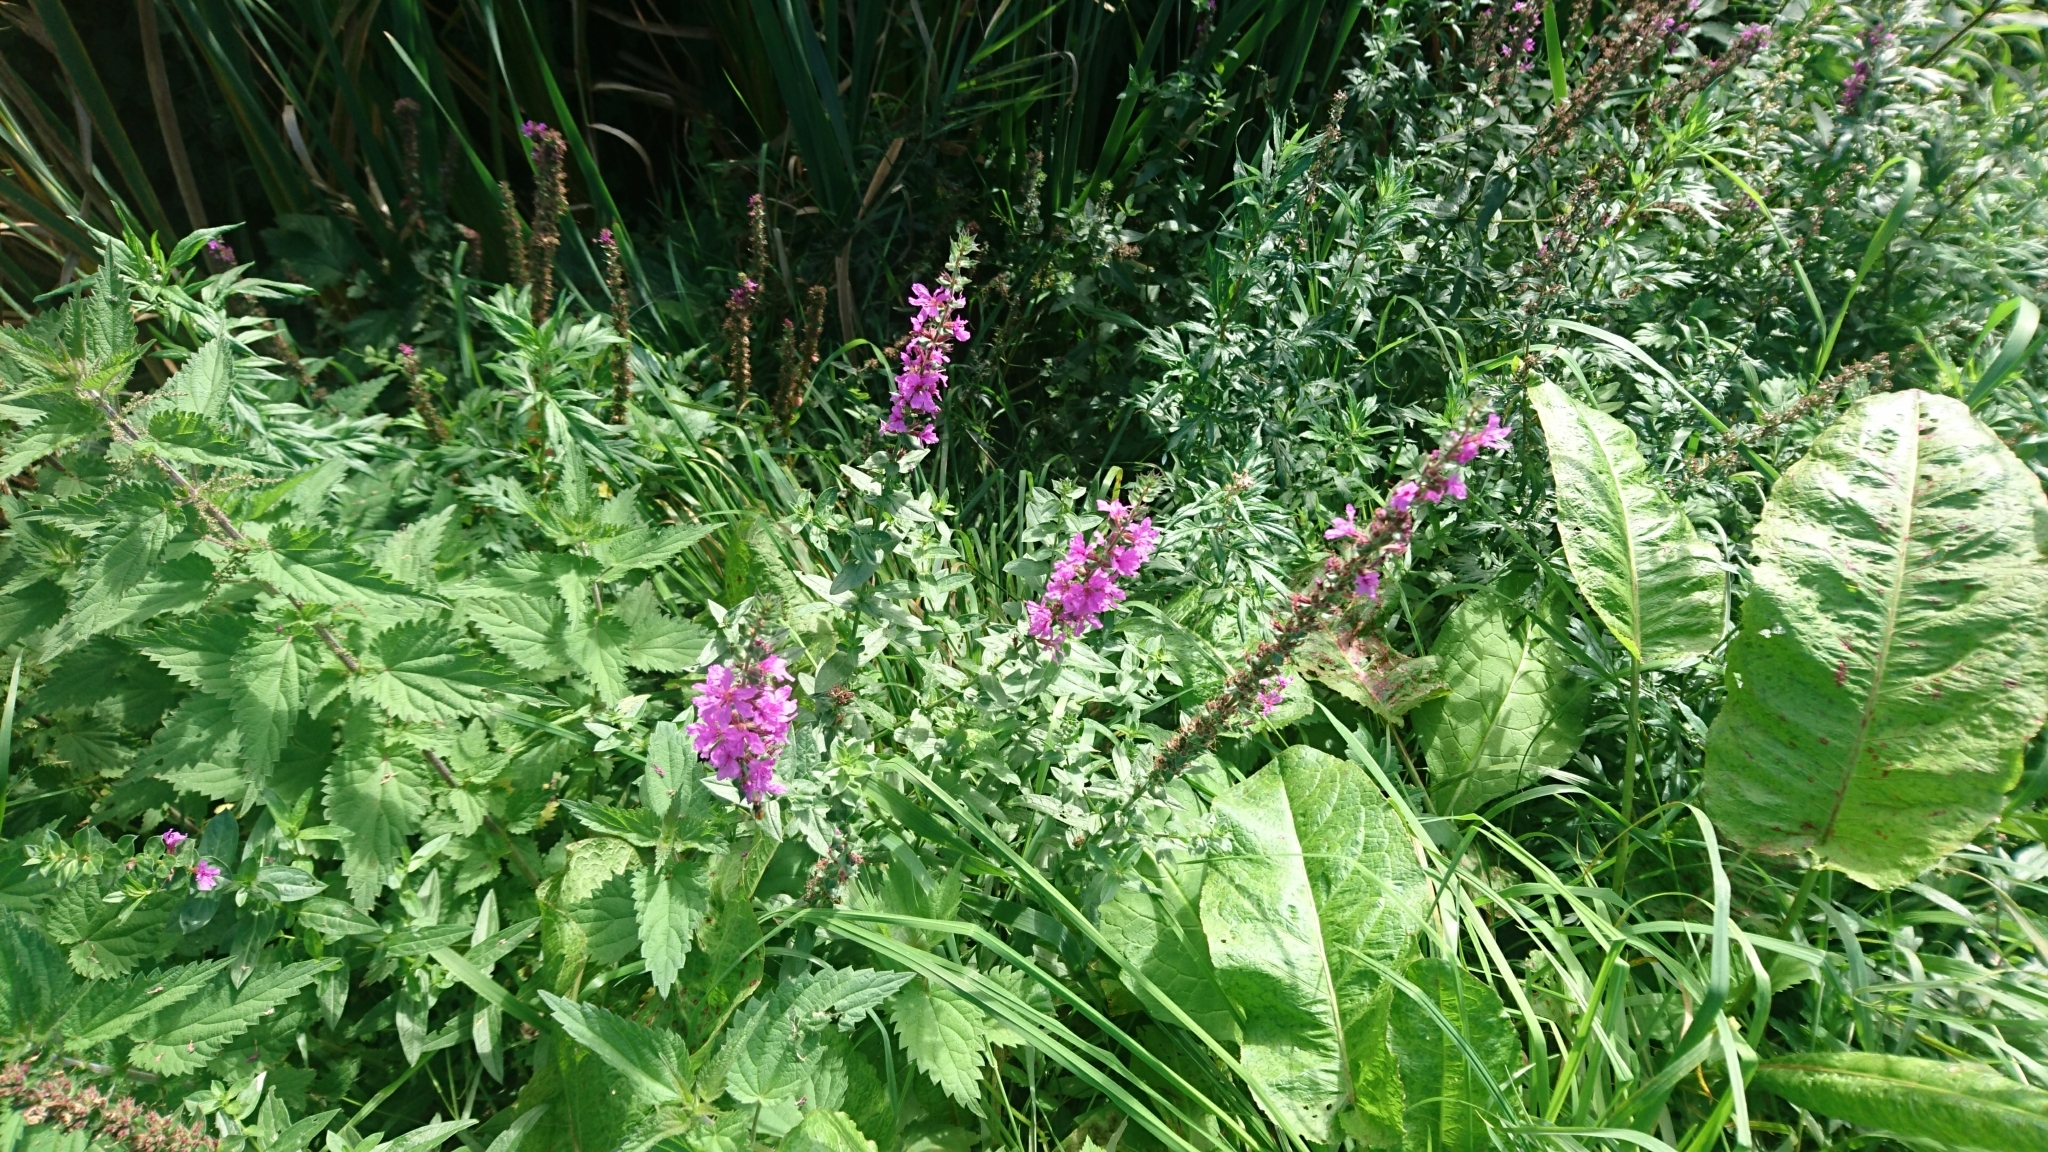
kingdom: Plantae
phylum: Tracheophyta
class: Magnoliopsida
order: Myrtales
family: Lythraceae
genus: Lythrum
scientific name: Lythrum salicaria
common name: Purple loosestrife
